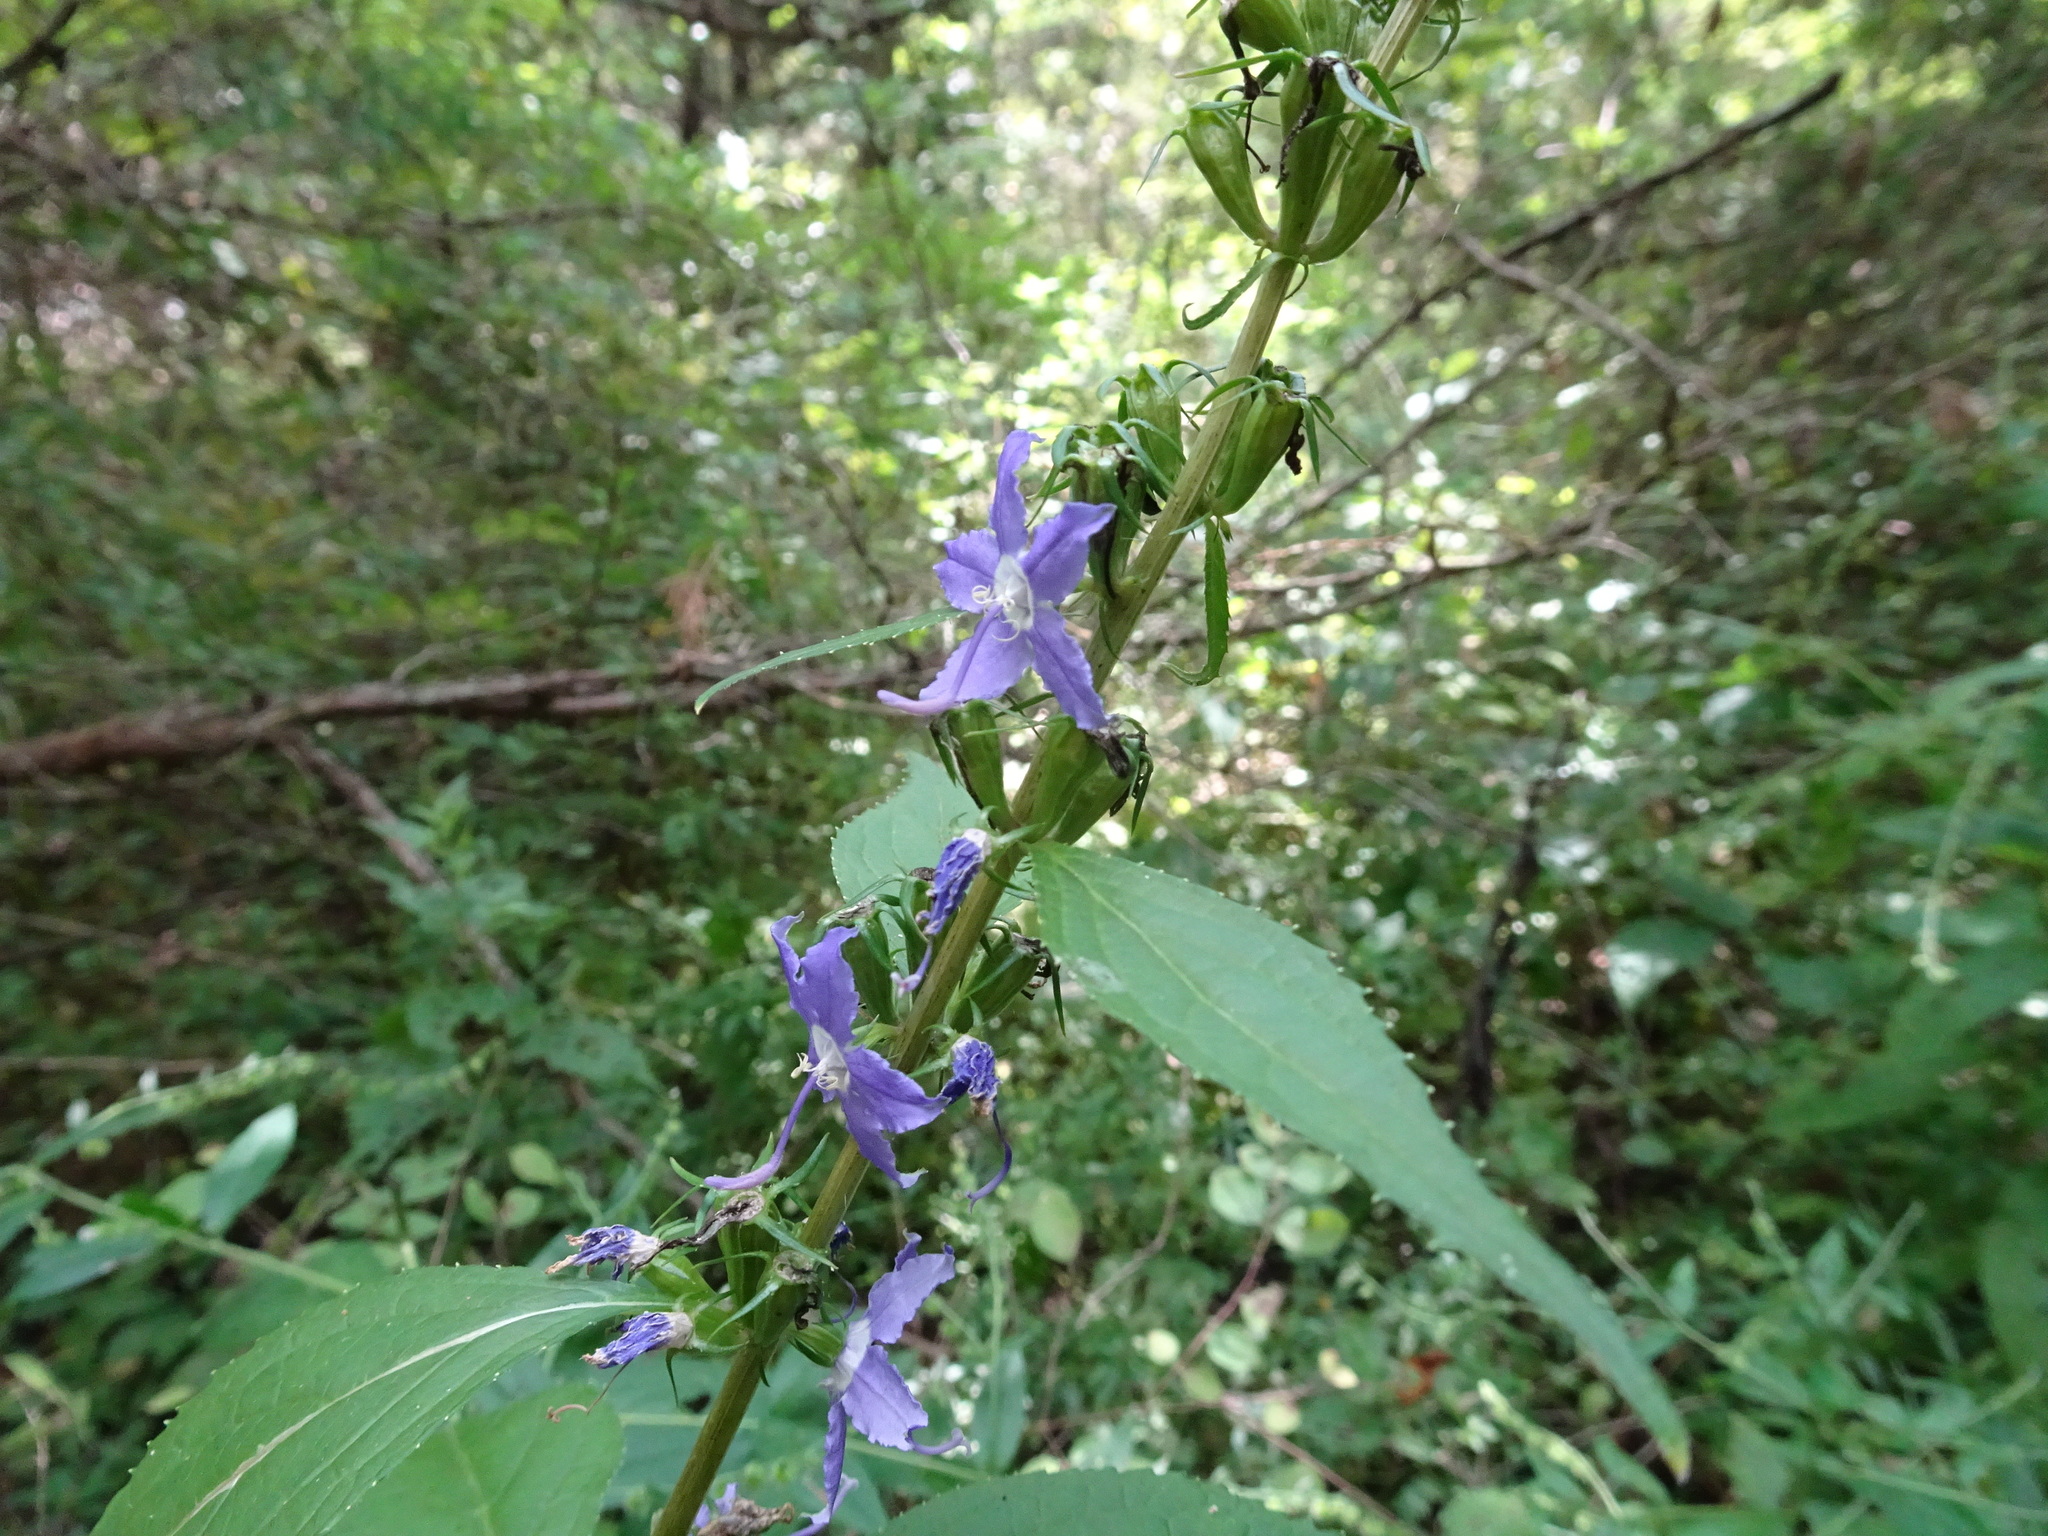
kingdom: Plantae
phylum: Tracheophyta
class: Magnoliopsida
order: Asterales
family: Campanulaceae
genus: Campanulastrum
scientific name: Campanulastrum americanum
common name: American bellflower
